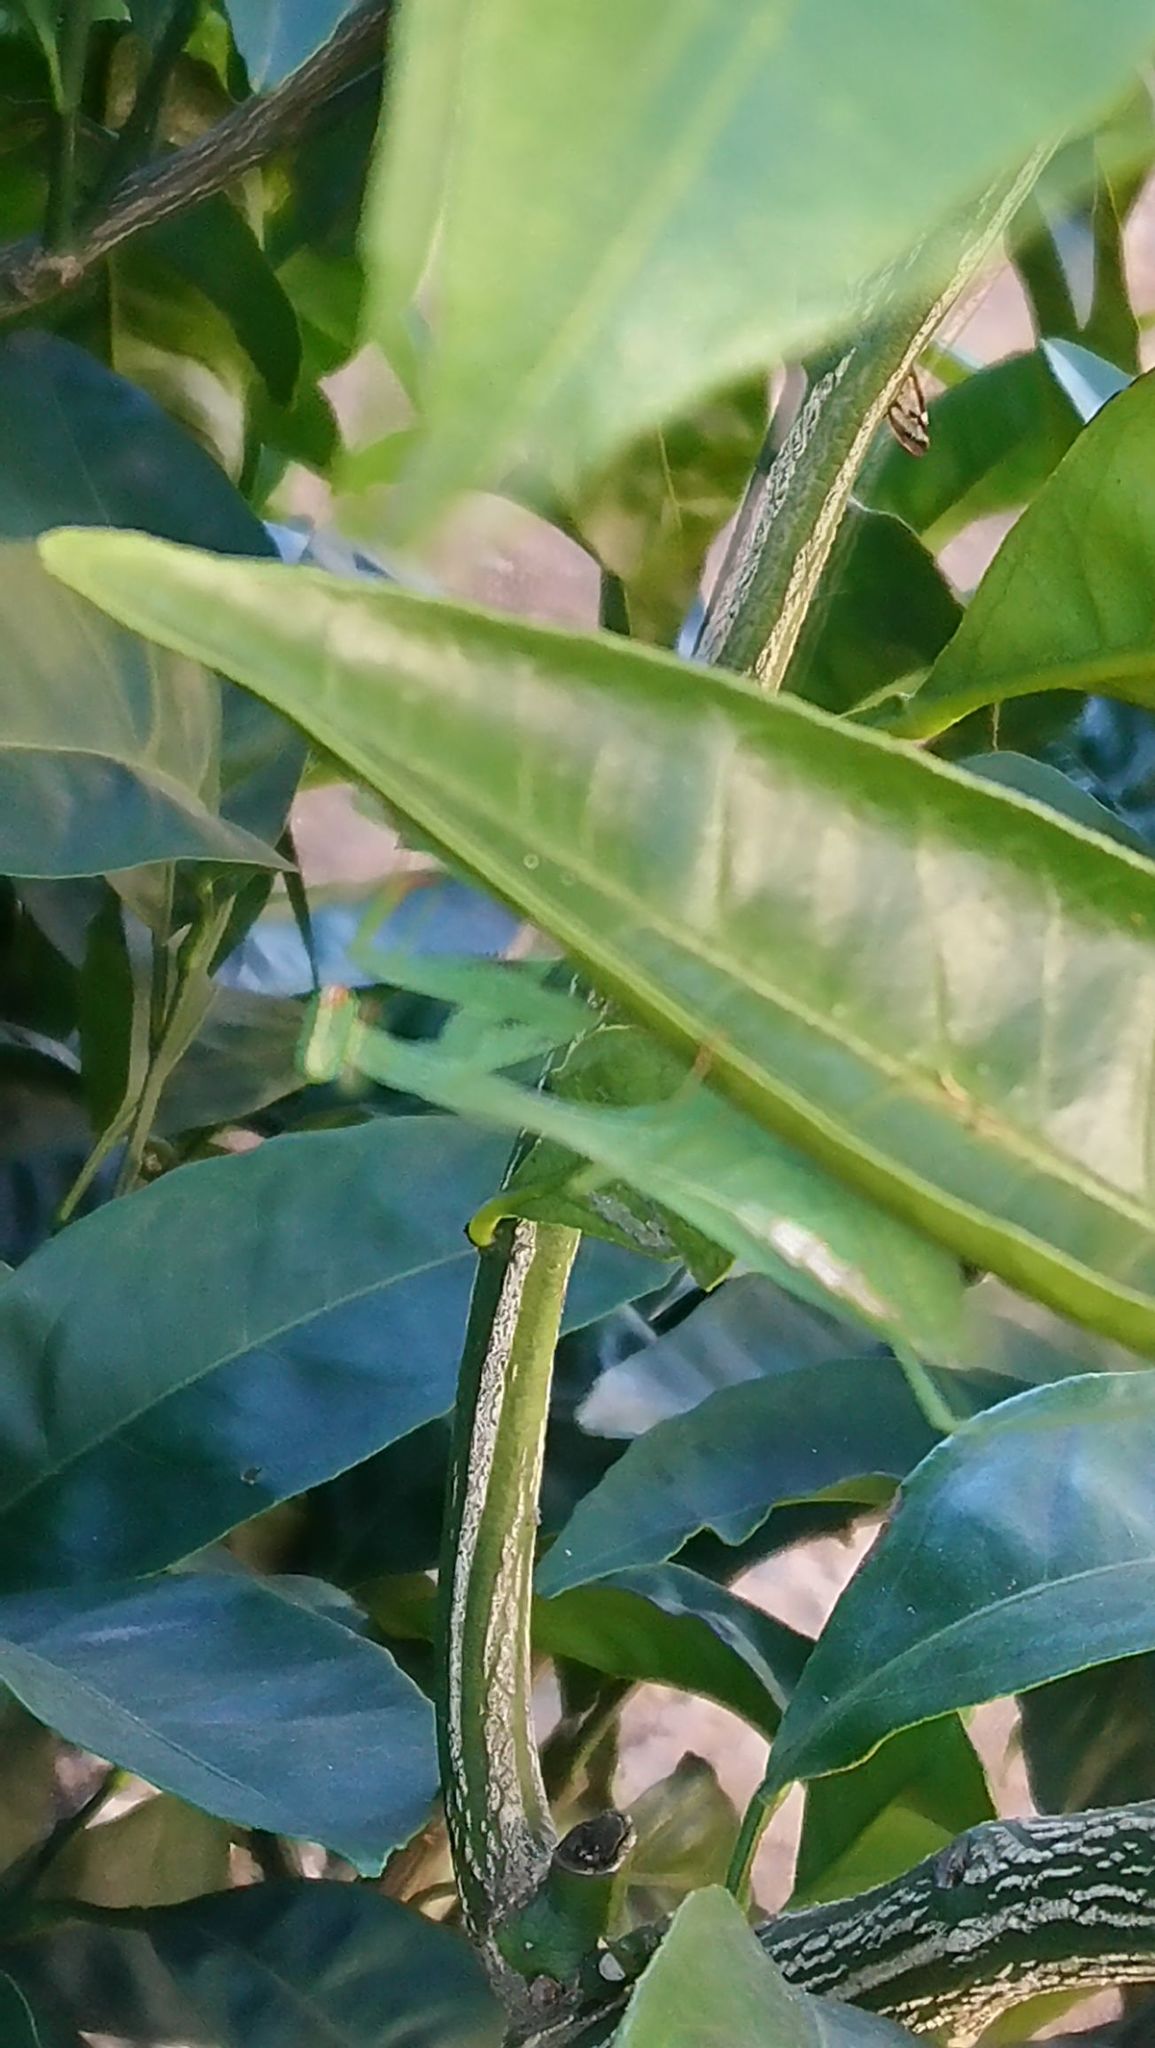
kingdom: Animalia
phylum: Arthropoda
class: Insecta
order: Mantodea
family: Miomantidae
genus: Miomantis
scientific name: Miomantis caffra
